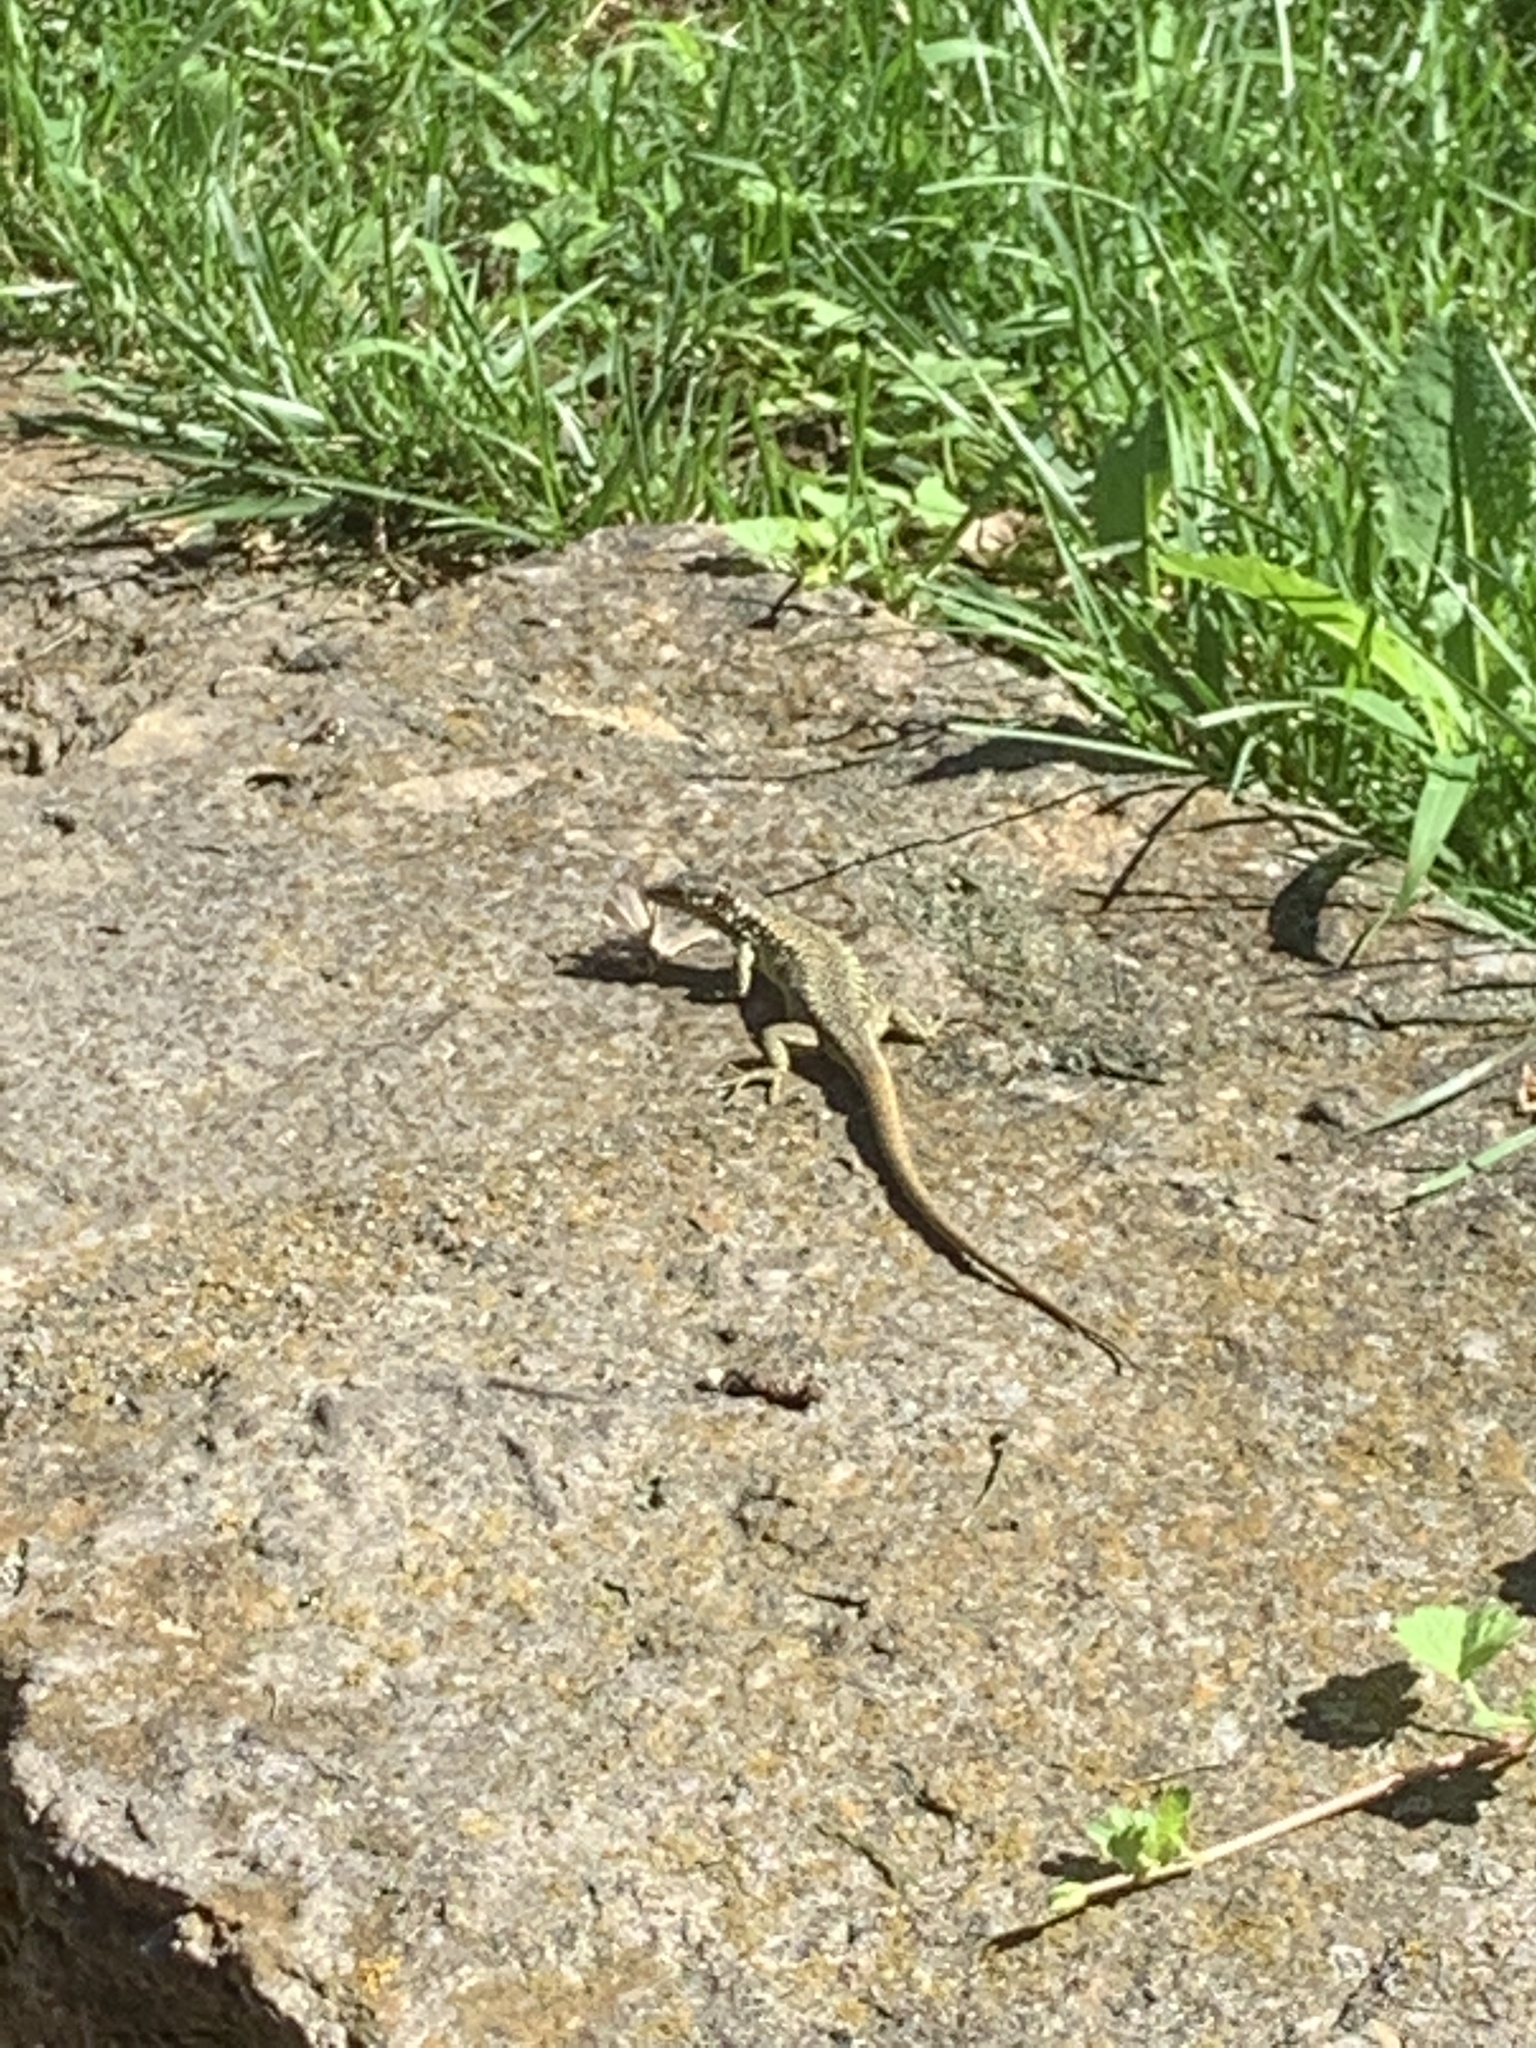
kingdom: Animalia
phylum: Chordata
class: Squamata
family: Lacertidae
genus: Podarcis
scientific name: Podarcis muralis
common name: Common wall lizard
